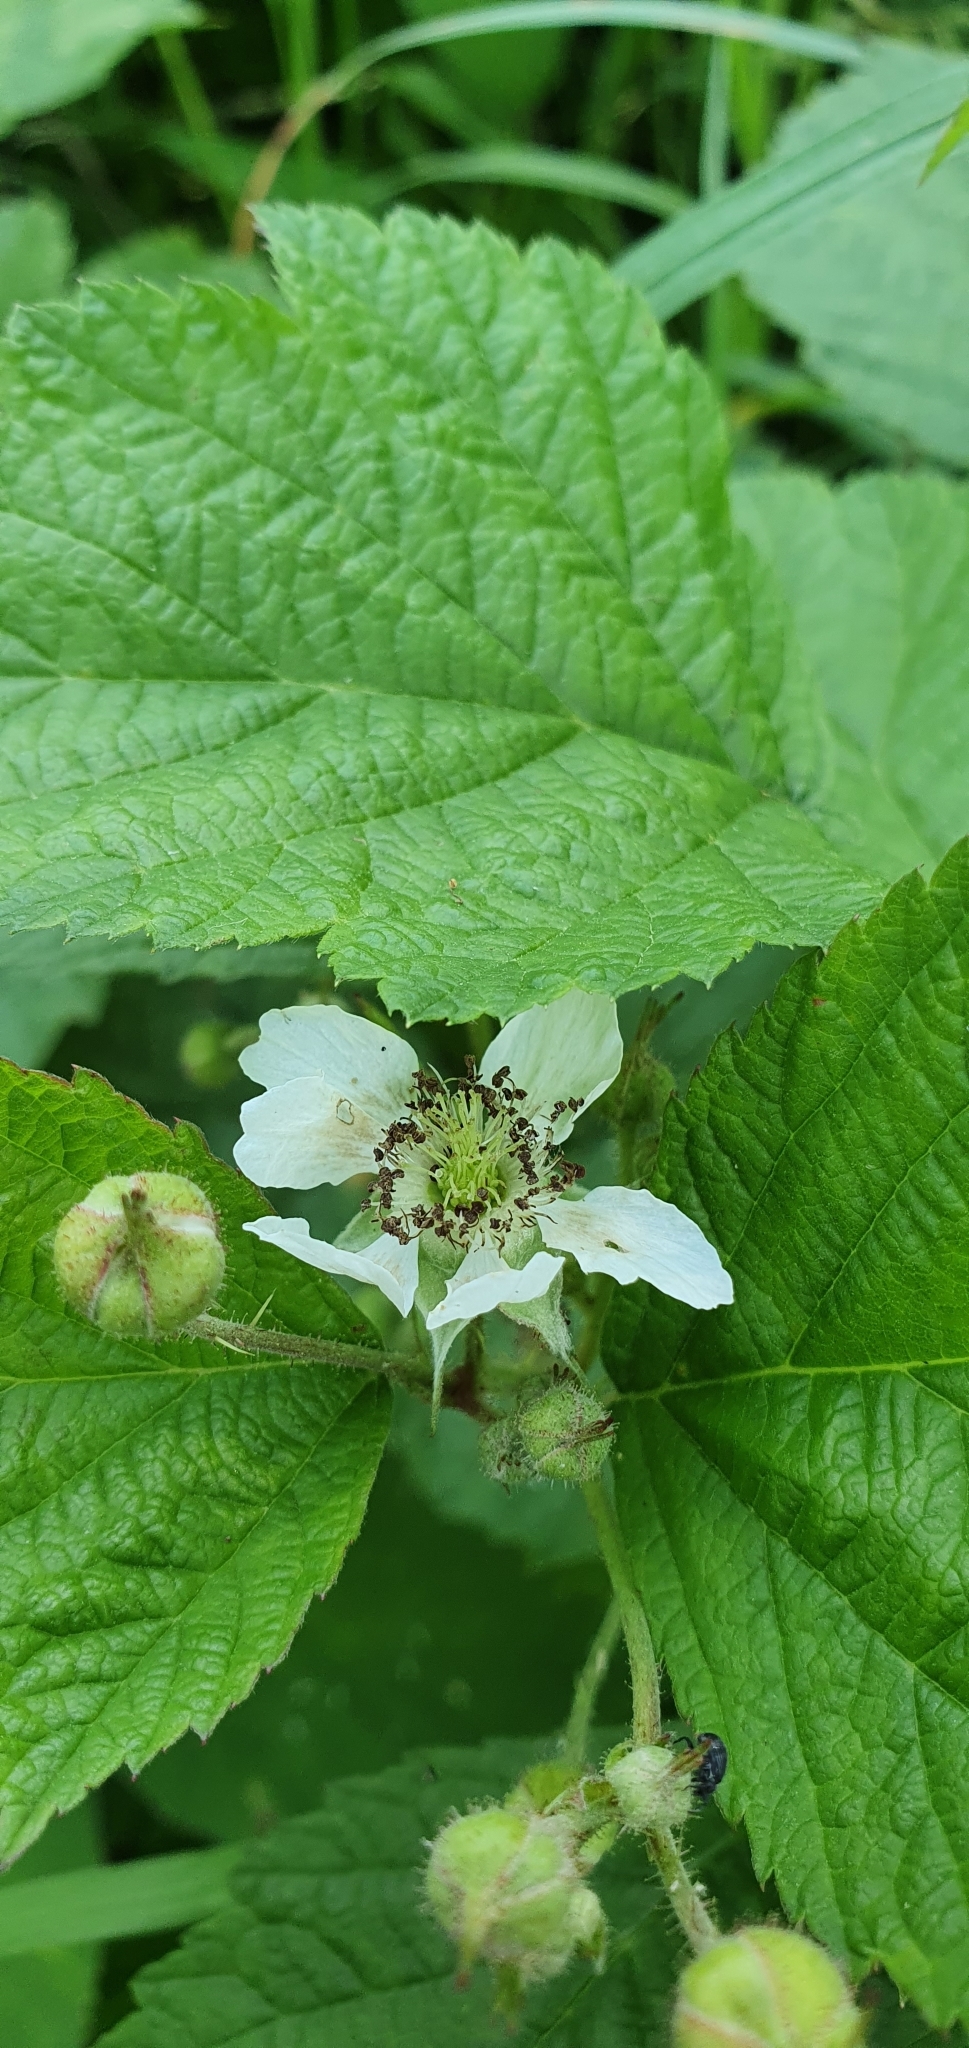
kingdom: Plantae
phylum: Tracheophyta
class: Magnoliopsida
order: Rosales
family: Rosaceae
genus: Rubus
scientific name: Rubus caesius
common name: Dewberry
